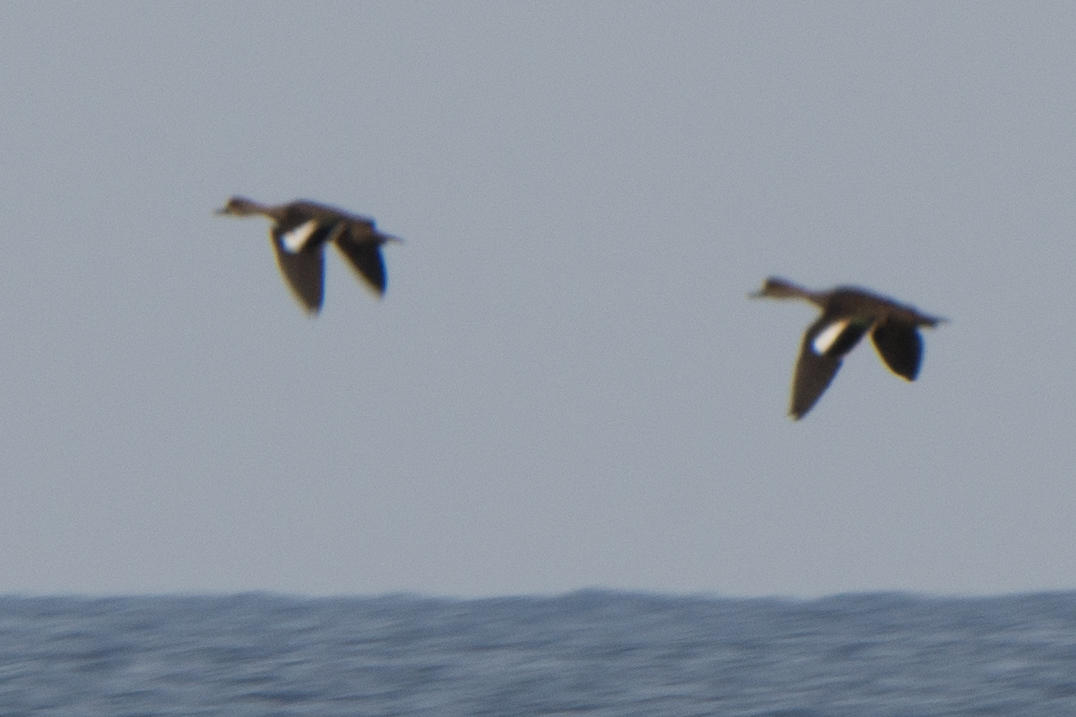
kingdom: Animalia
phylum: Chordata
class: Aves
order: Anseriformes
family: Anatidae
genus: Anas
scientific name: Anas gibberifrons
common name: Sunda teal
